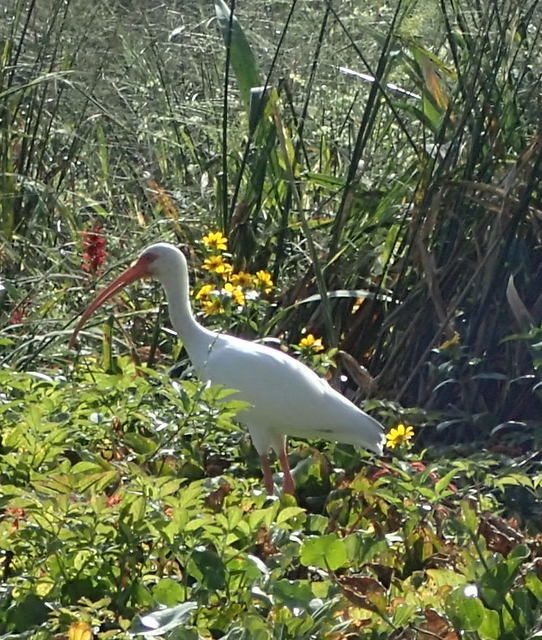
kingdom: Animalia
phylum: Chordata
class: Aves
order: Pelecaniformes
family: Threskiornithidae
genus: Eudocimus
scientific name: Eudocimus albus
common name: White ibis
